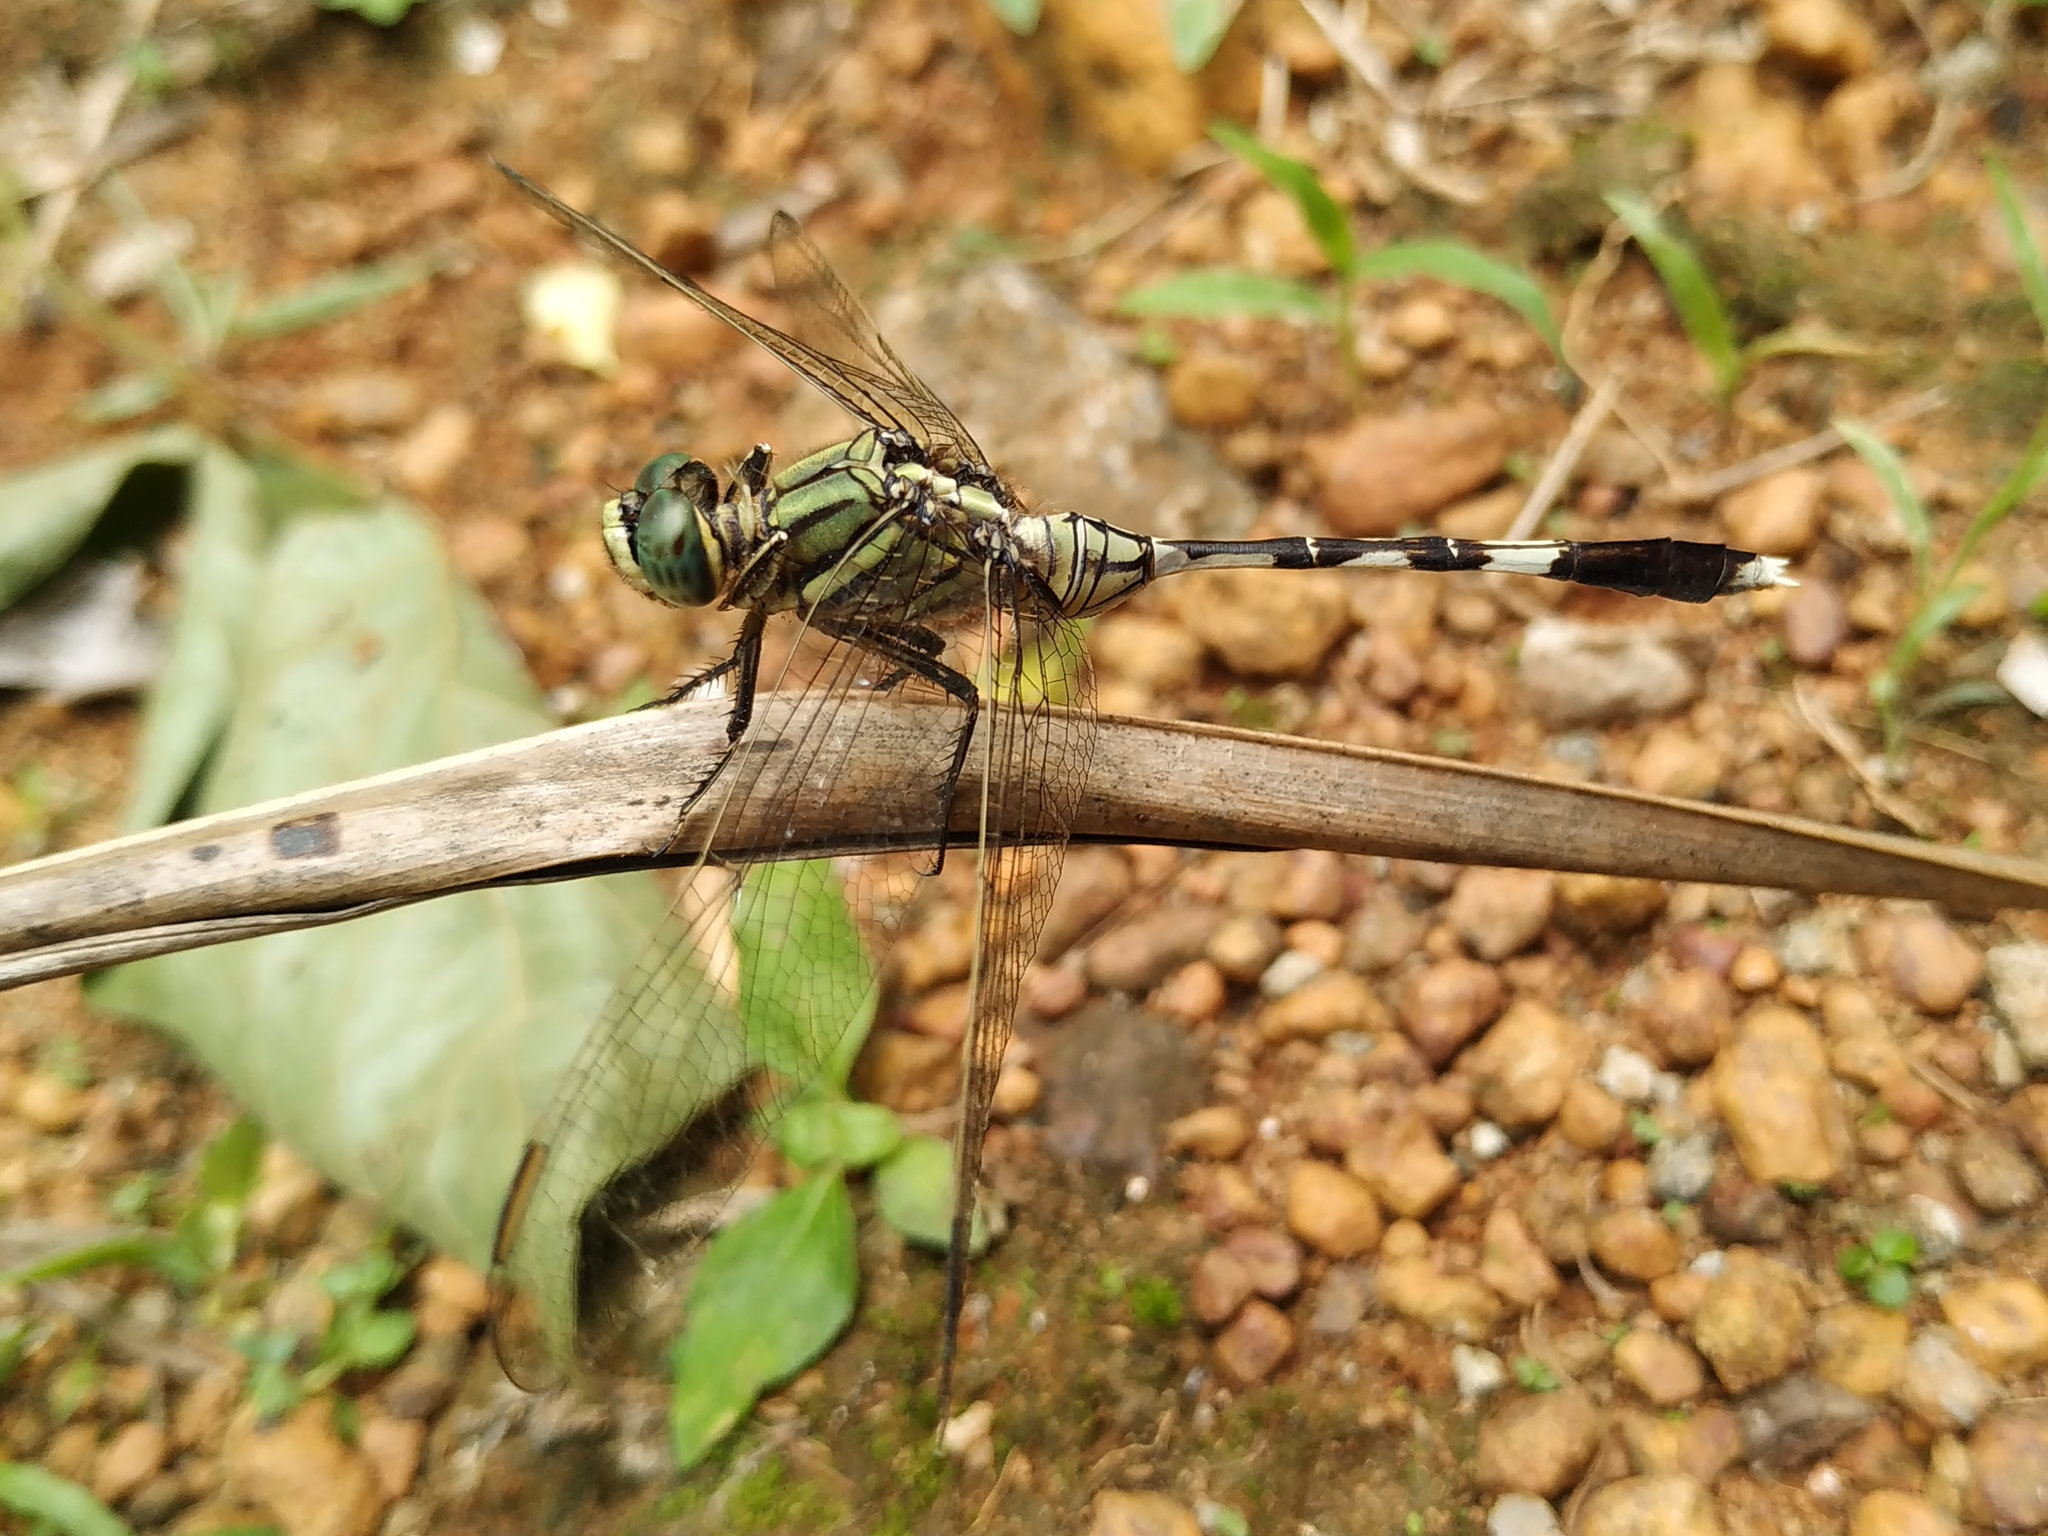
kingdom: Animalia
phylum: Arthropoda
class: Insecta
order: Odonata
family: Libellulidae
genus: Orthetrum
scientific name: Orthetrum sabina
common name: Slender skimmer
